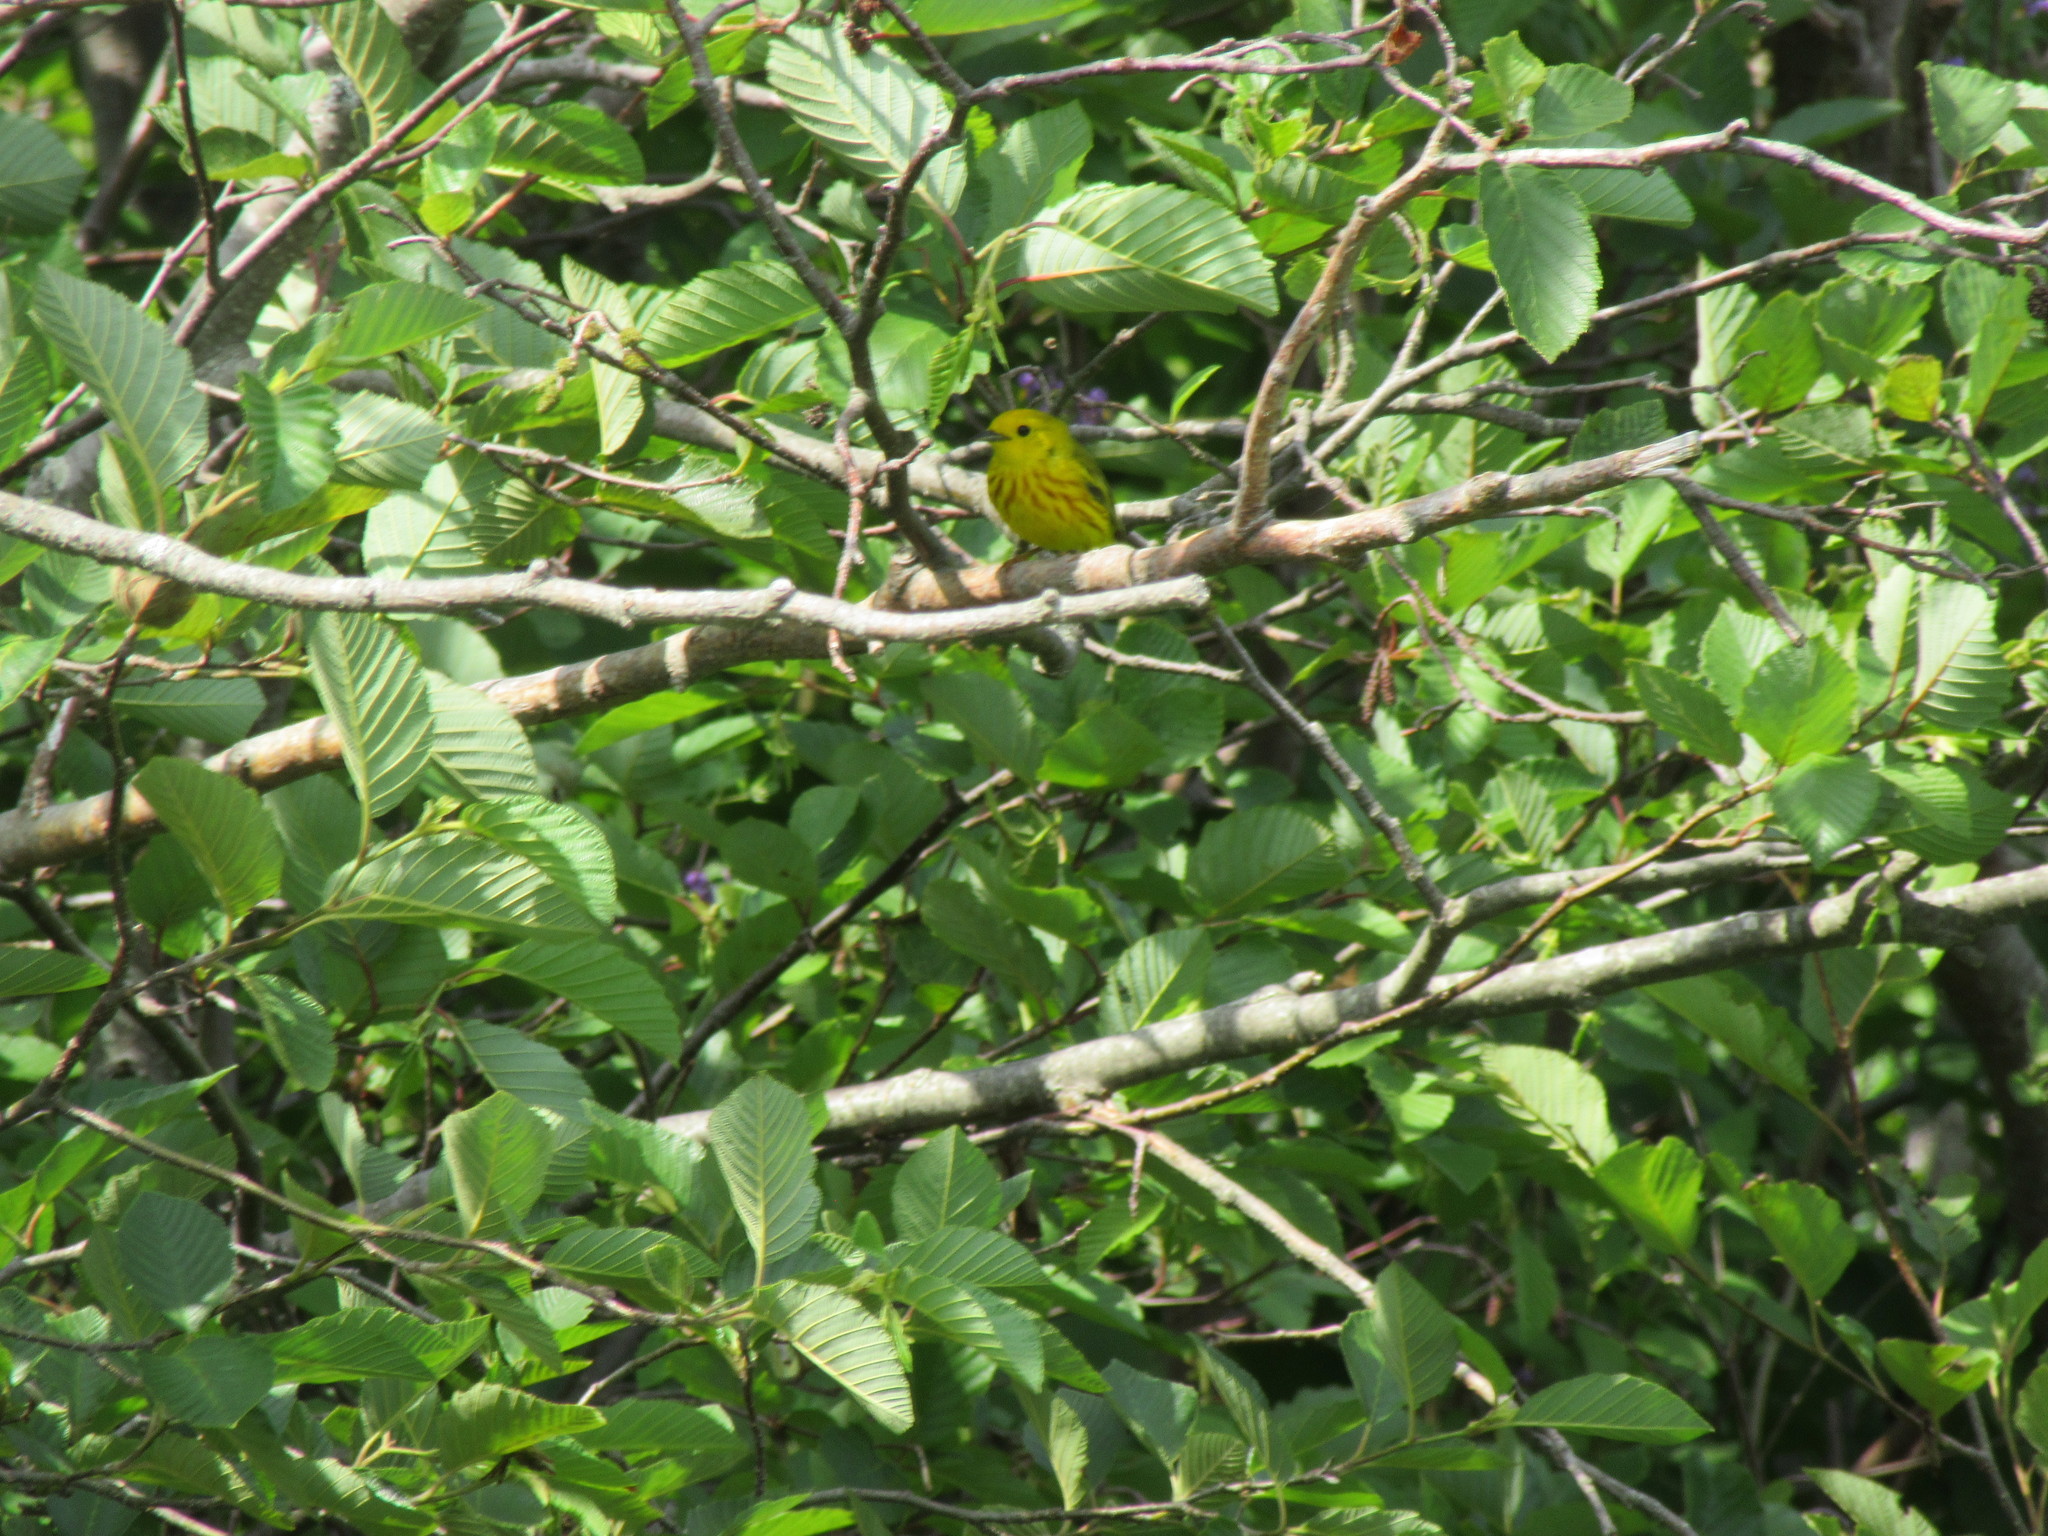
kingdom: Animalia
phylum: Chordata
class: Aves
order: Passeriformes
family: Parulidae
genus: Setophaga
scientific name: Setophaga petechia
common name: Yellow warbler
